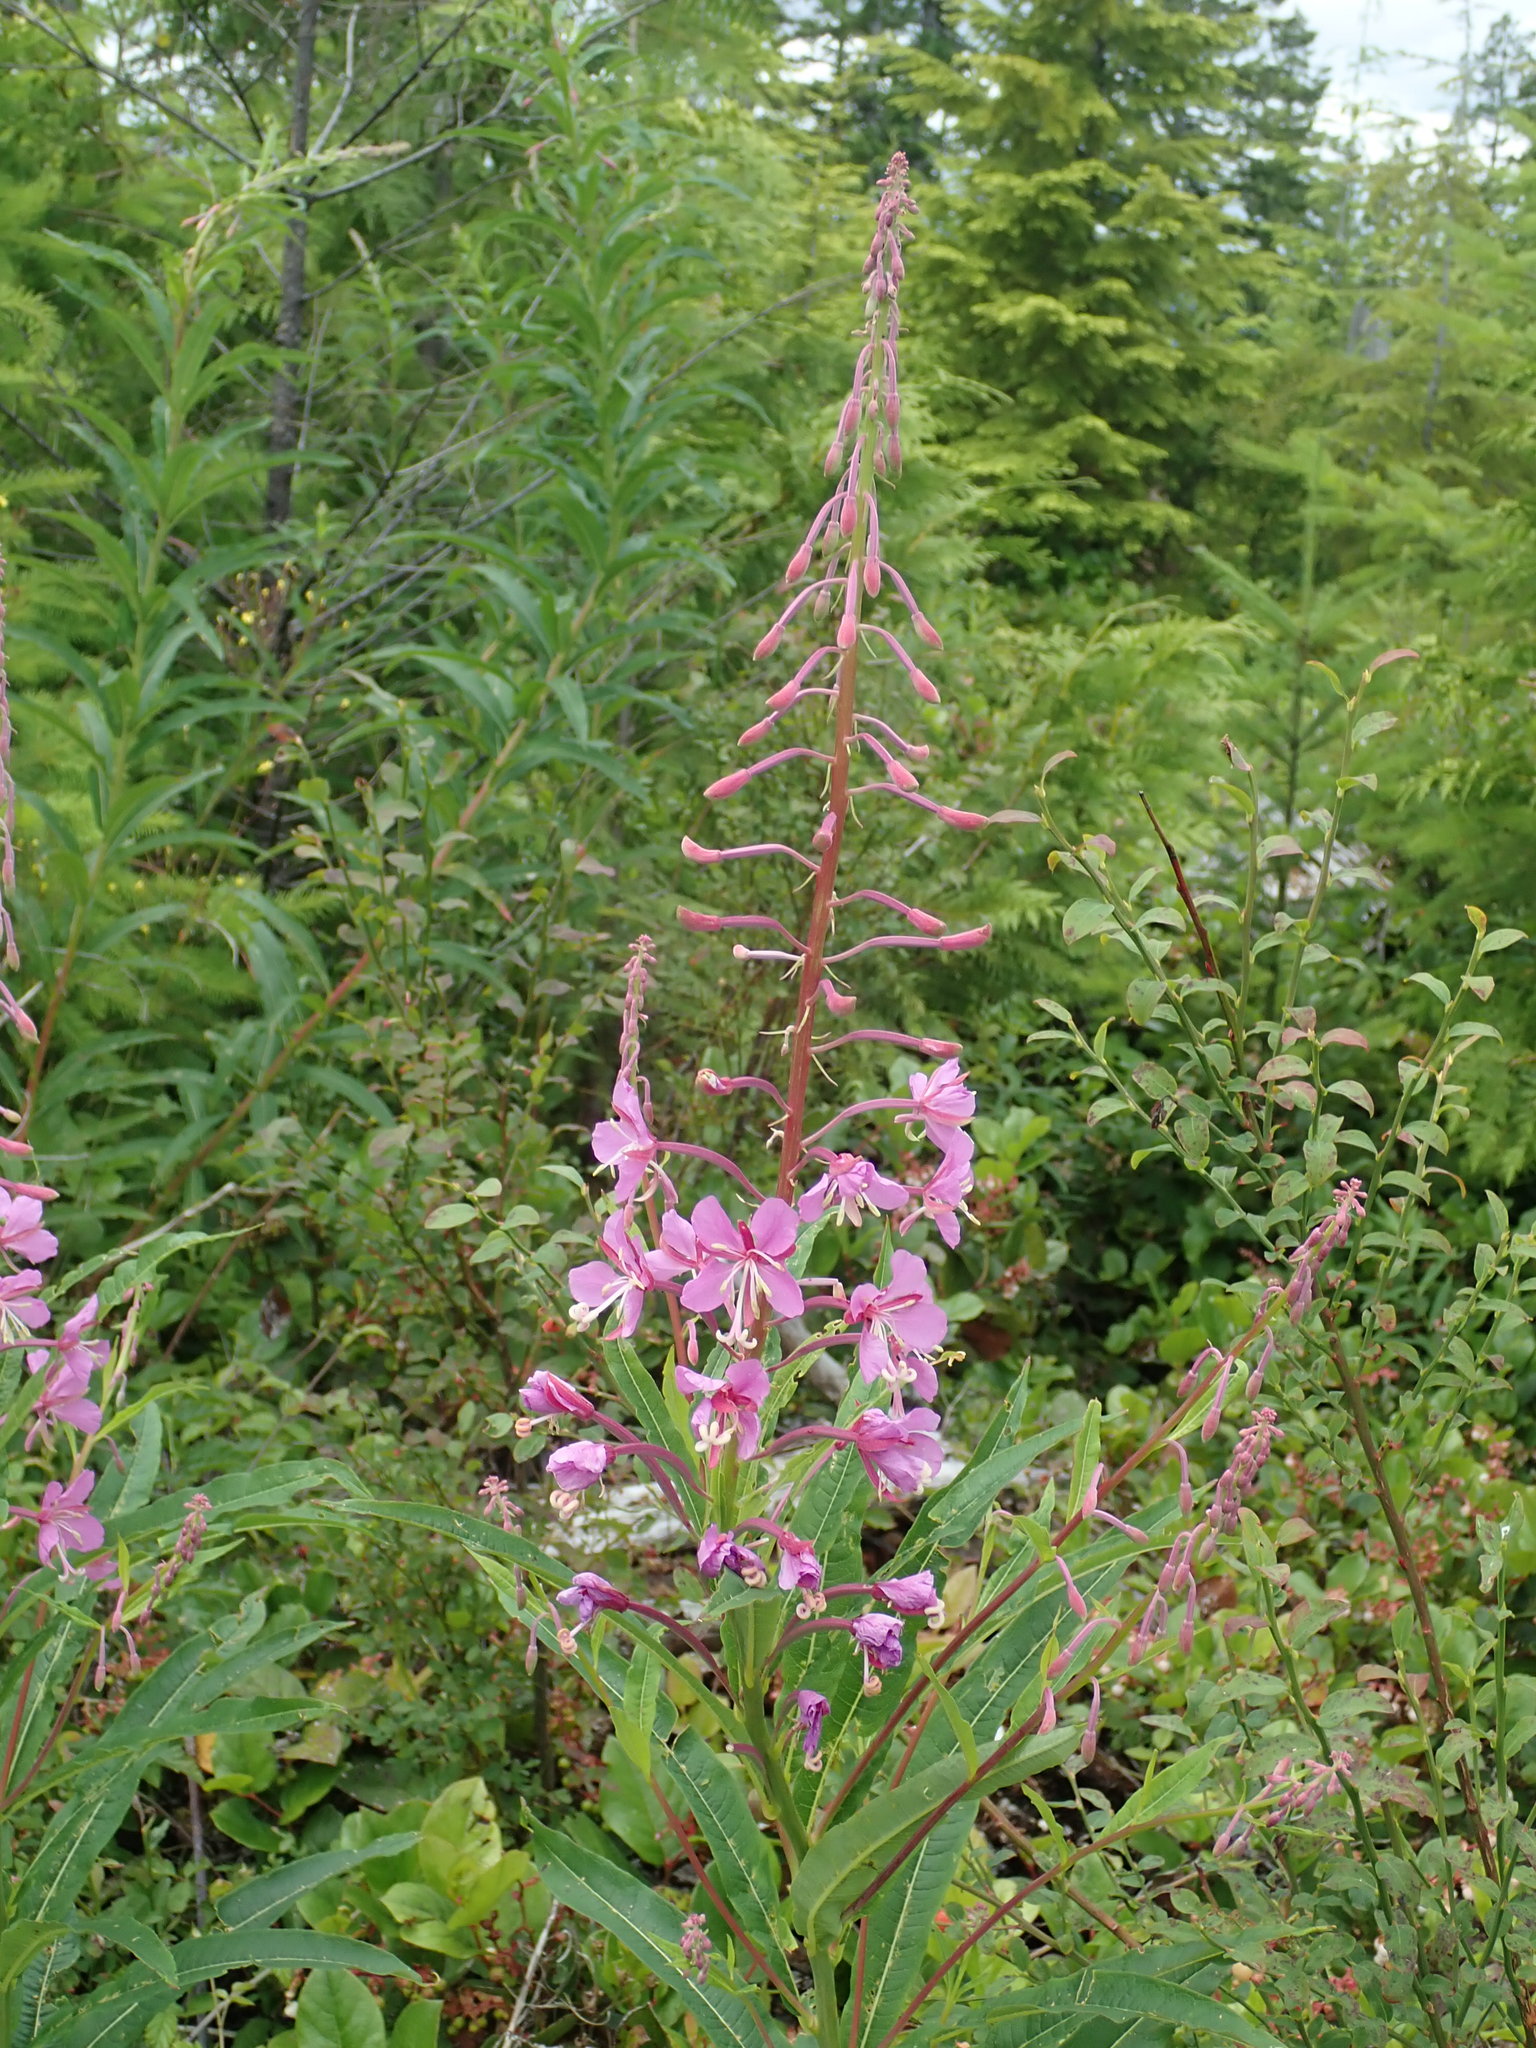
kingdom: Plantae
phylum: Tracheophyta
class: Magnoliopsida
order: Myrtales
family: Onagraceae
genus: Chamaenerion
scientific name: Chamaenerion angustifolium
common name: Fireweed
